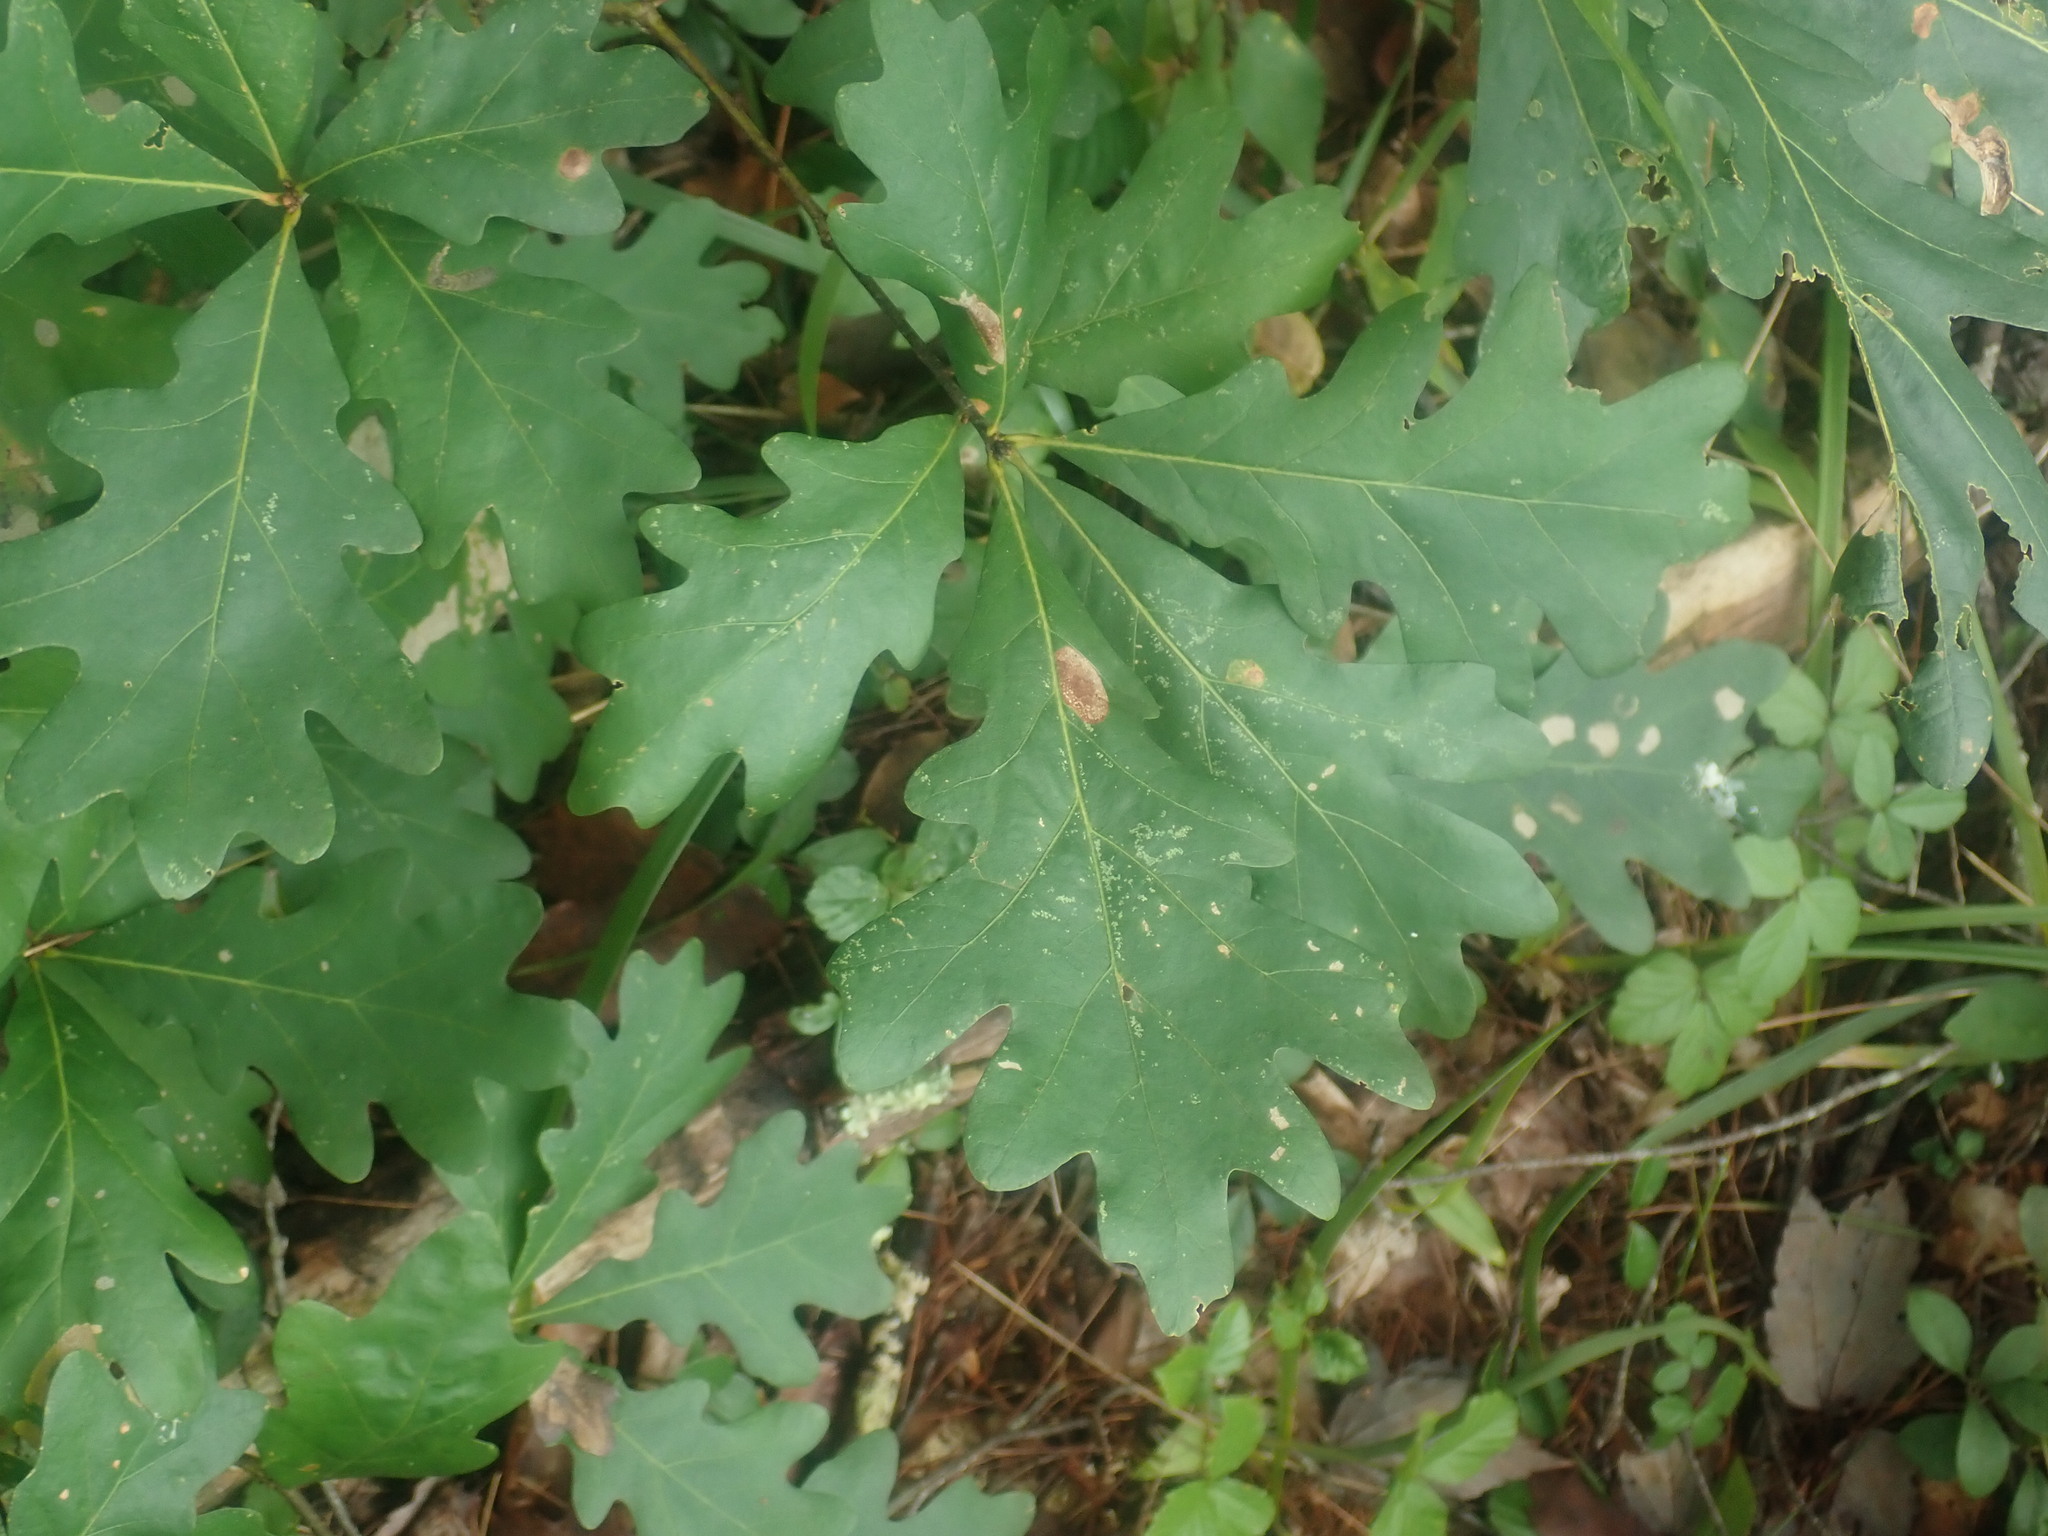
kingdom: Plantae
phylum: Tracheophyta
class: Magnoliopsida
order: Fagales
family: Fagaceae
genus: Quercus
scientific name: Quercus alba
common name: White oak
